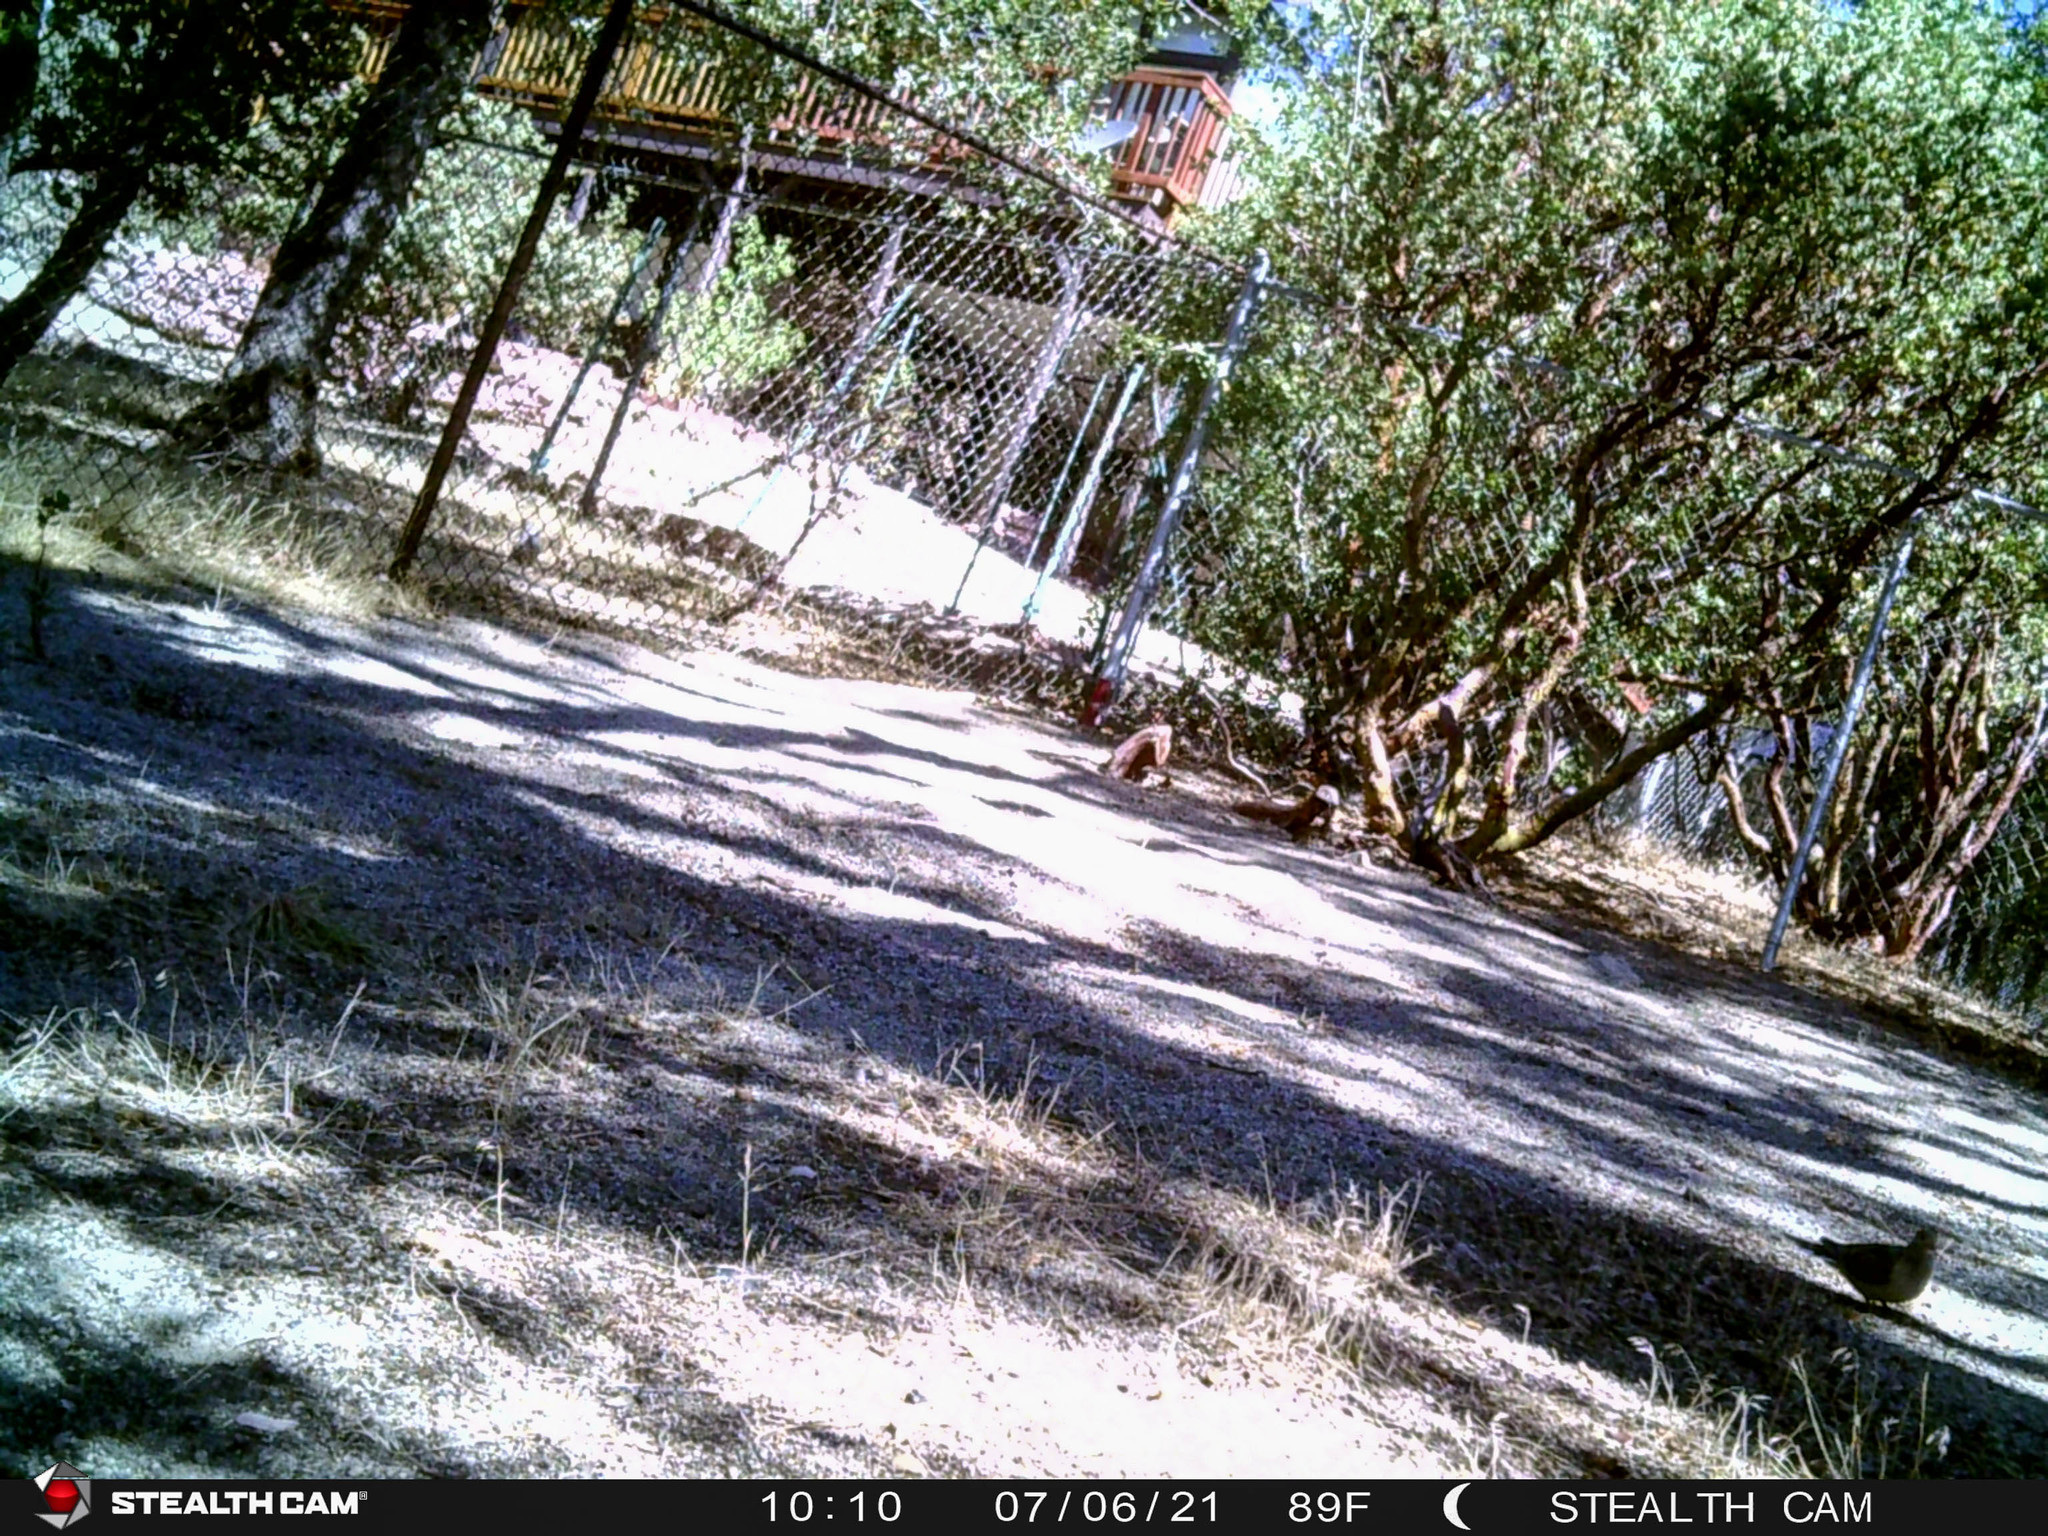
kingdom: Animalia
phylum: Chordata
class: Aves
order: Columbiformes
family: Columbidae
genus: Zenaida
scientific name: Zenaida macroura
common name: Mourning dove
